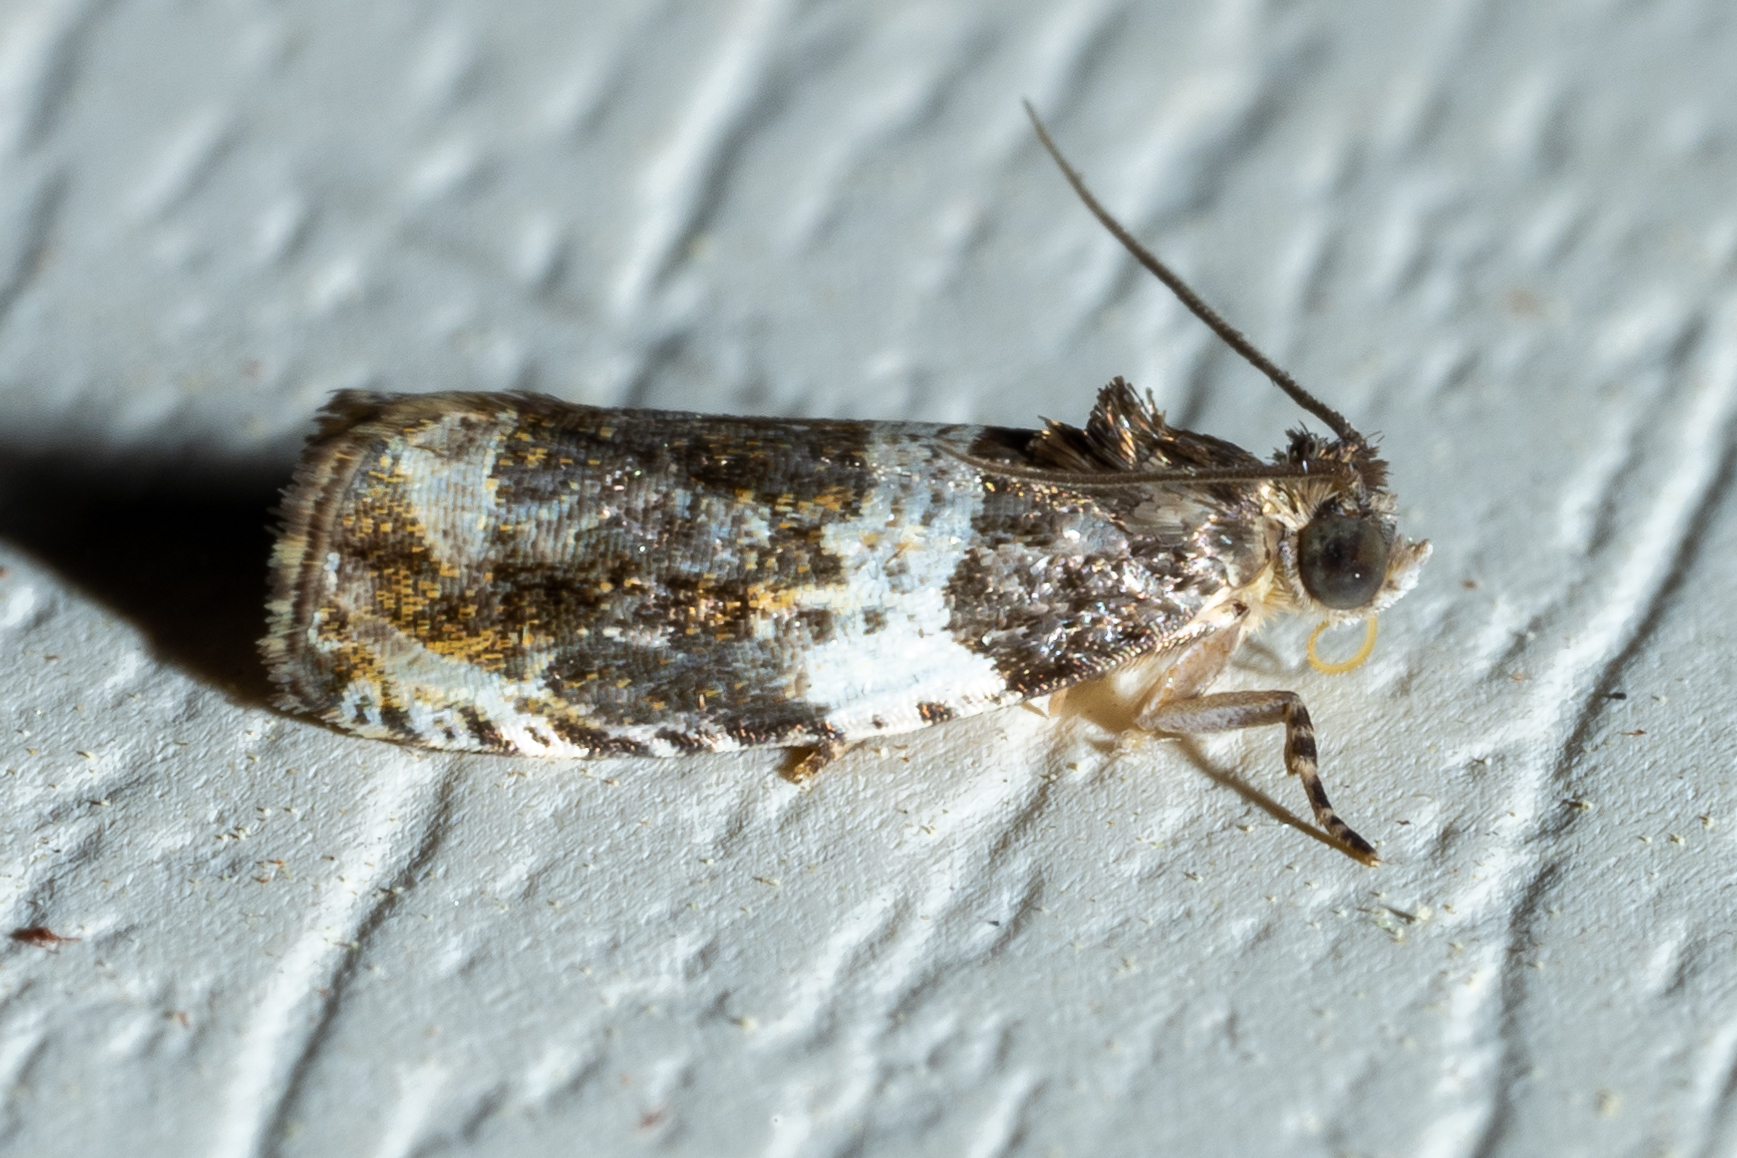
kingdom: Animalia
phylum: Arthropoda
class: Insecta
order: Lepidoptera
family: Tortricidae
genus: Olethreutes
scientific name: Olethreutes fasciatana
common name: Banded olethreutes moth
